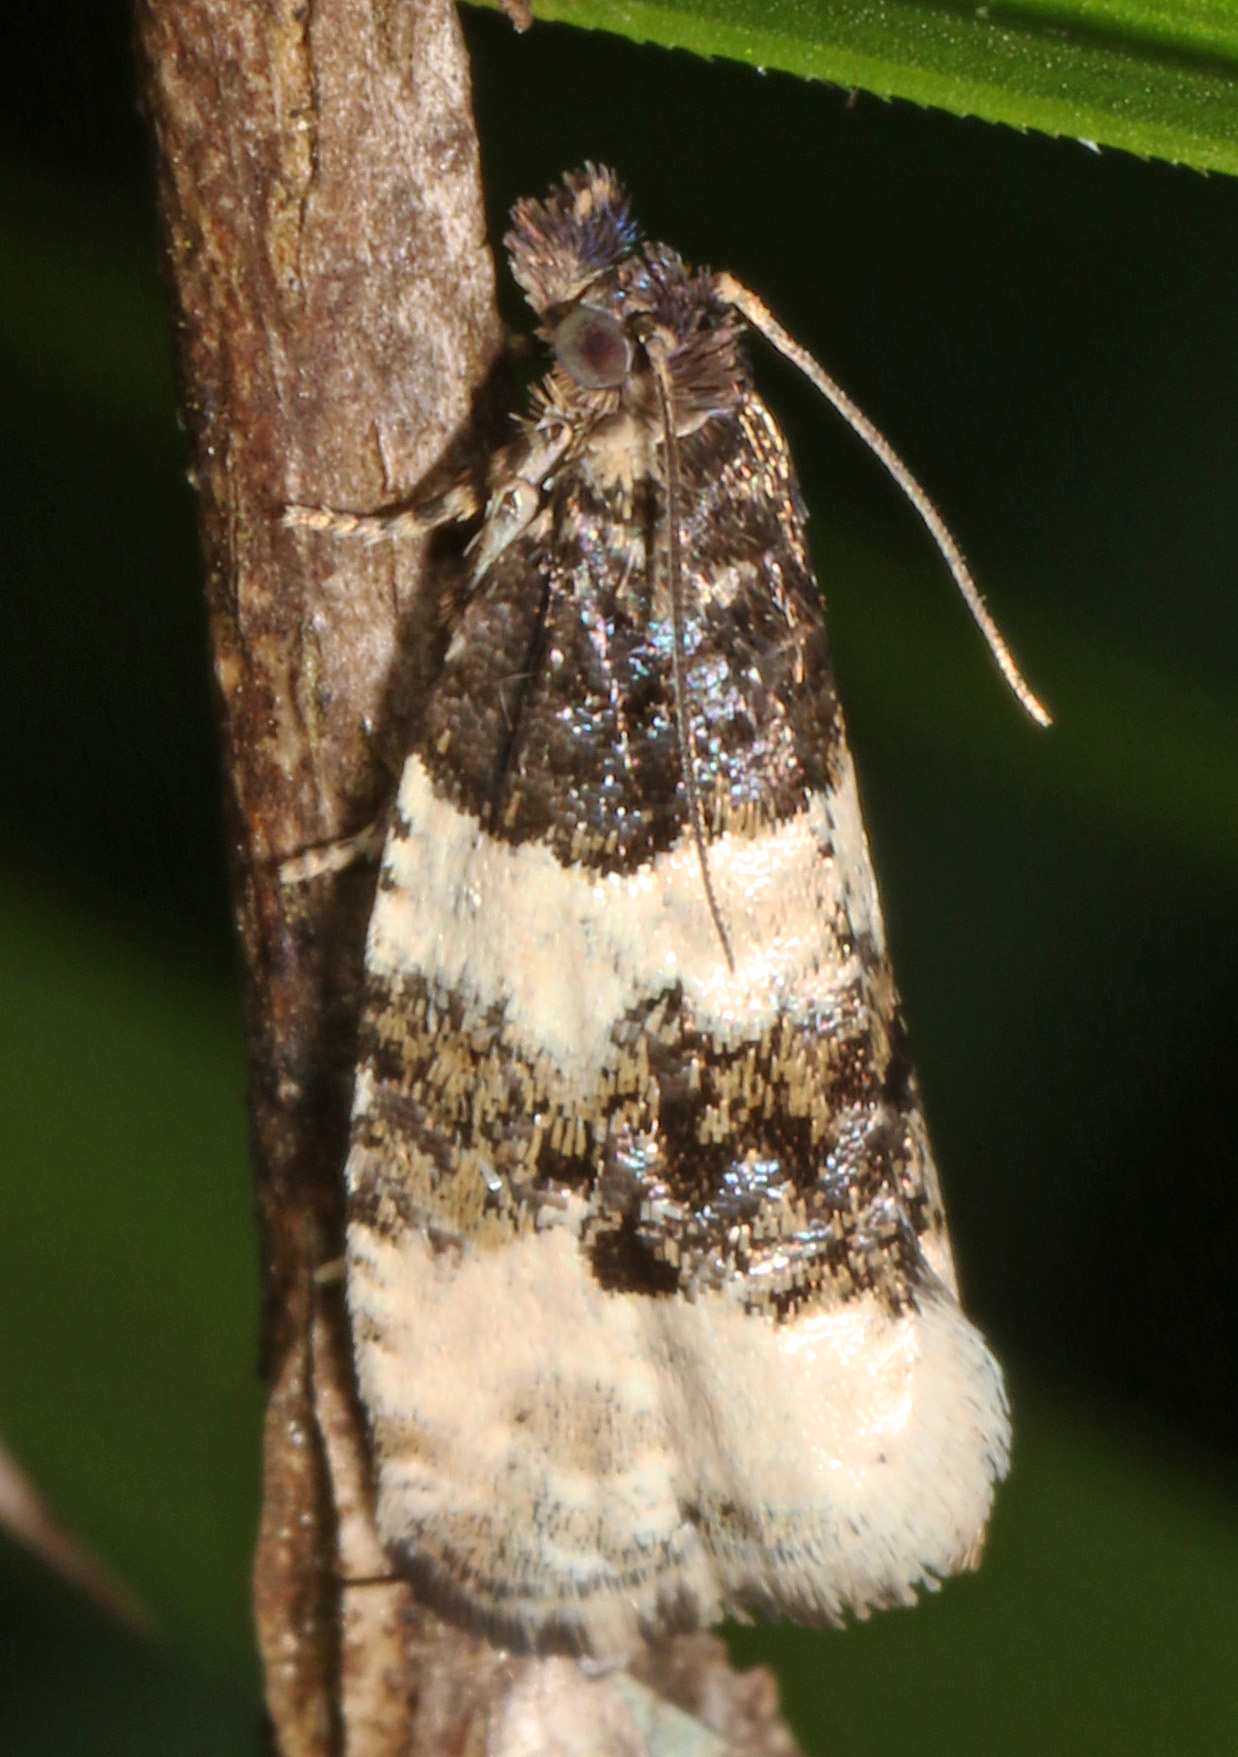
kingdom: Animalia
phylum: Arthropoda
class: Insecta
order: Lepidoptera
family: Tortricidae
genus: Olethreutes
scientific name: Olethreutes bipartitana
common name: Divided olethreutes moth
